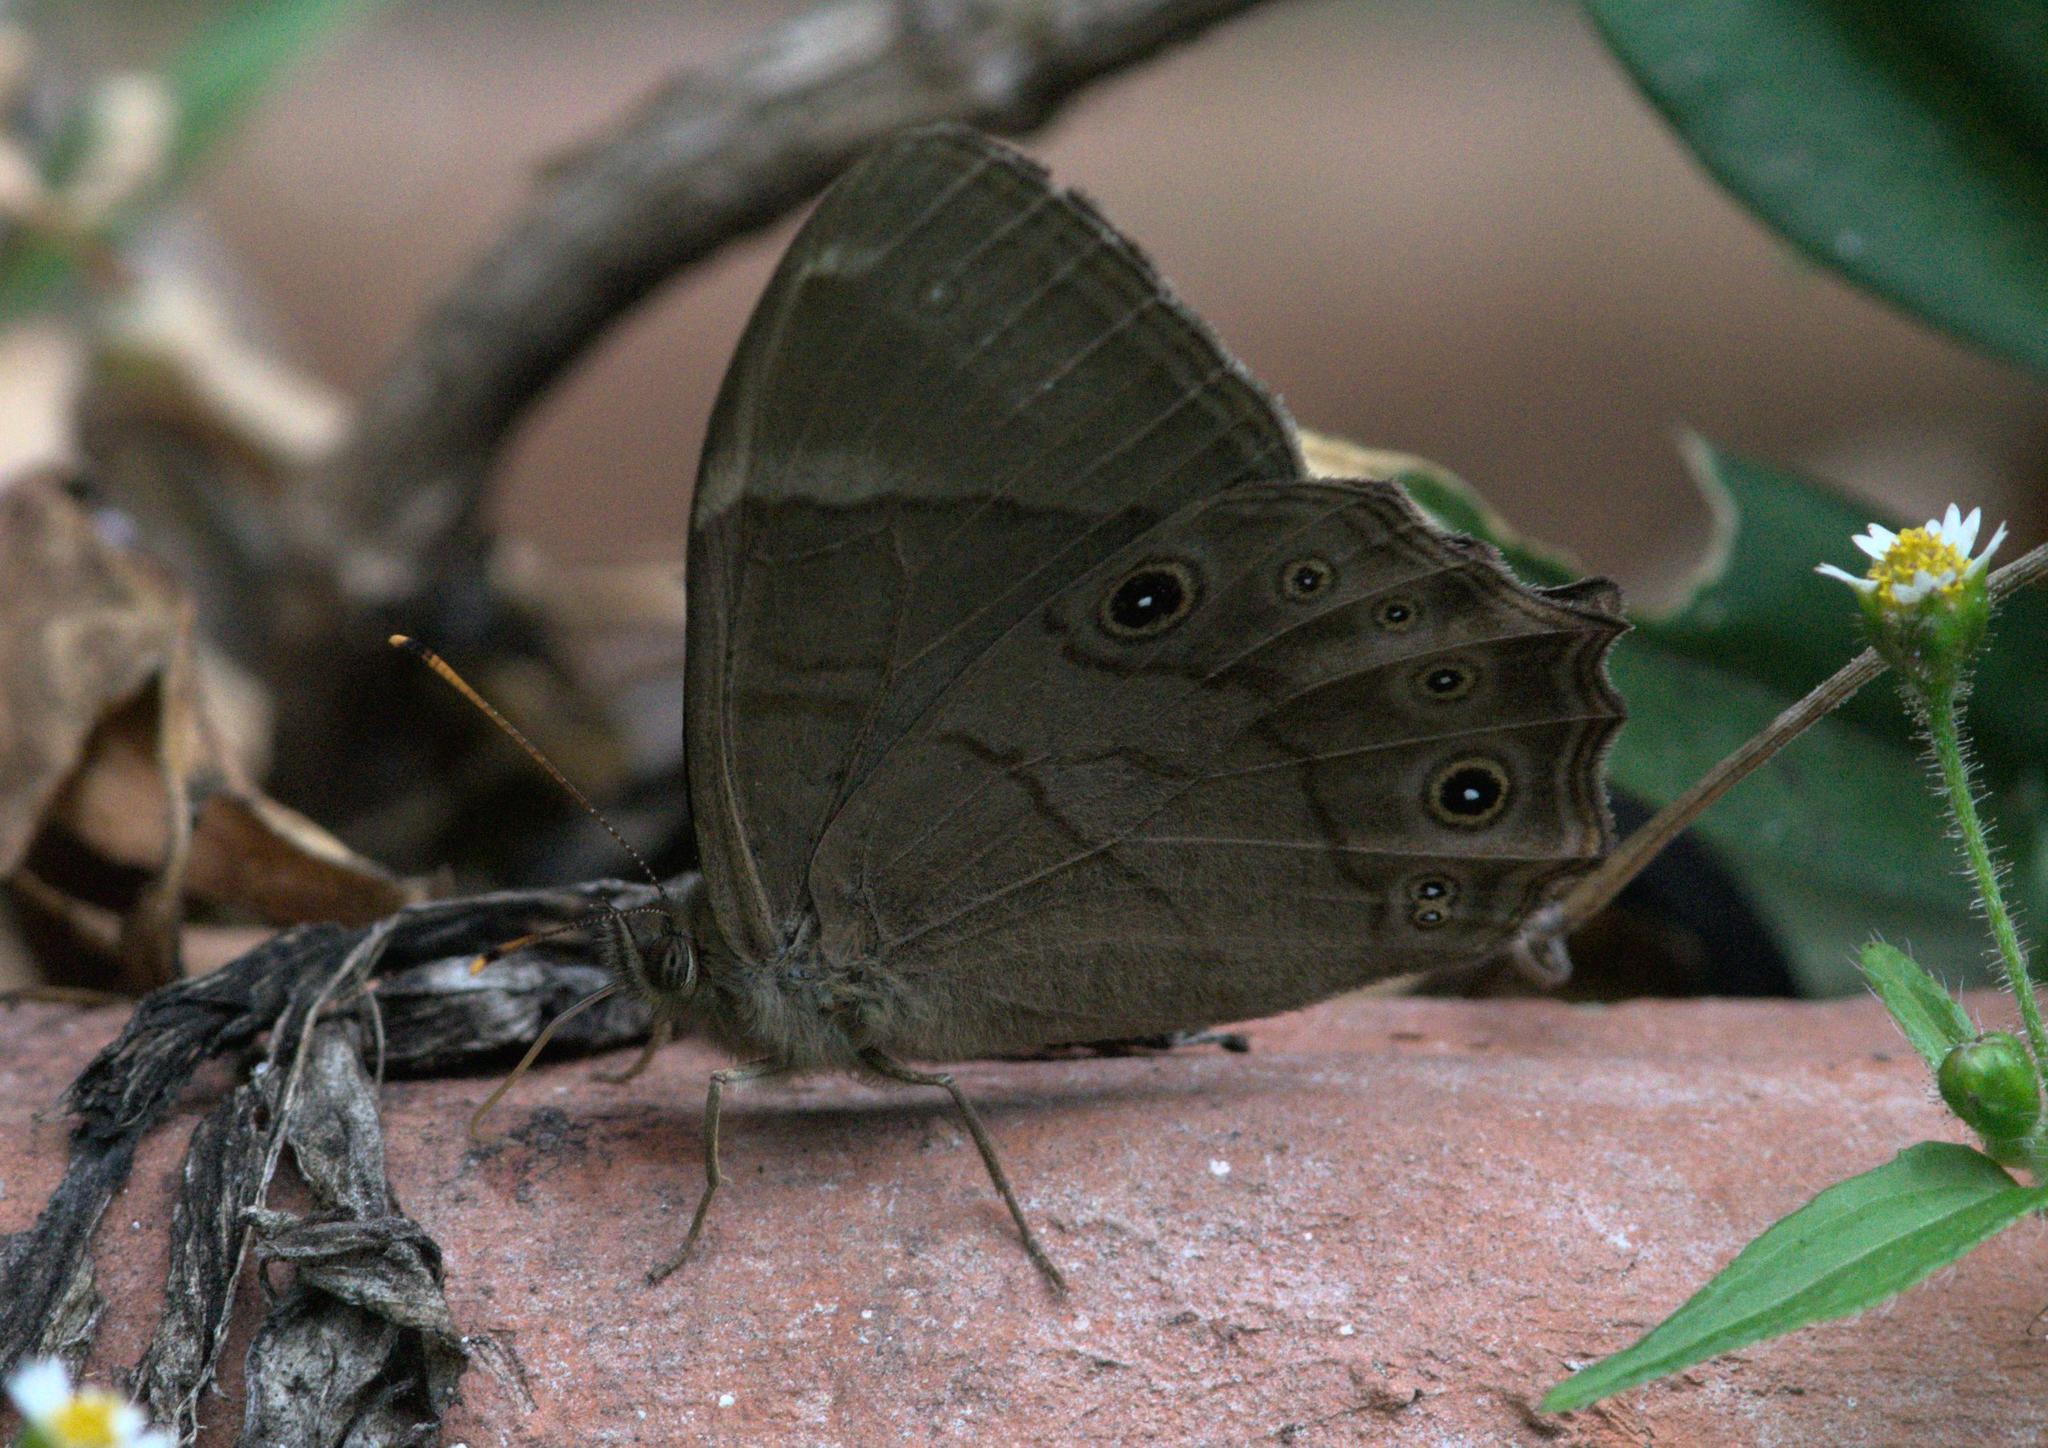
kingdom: Animalia
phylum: Arthropoda
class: Insecta
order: Lepidoptera
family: Nymphalidae
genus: Lethe
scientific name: Lethe
